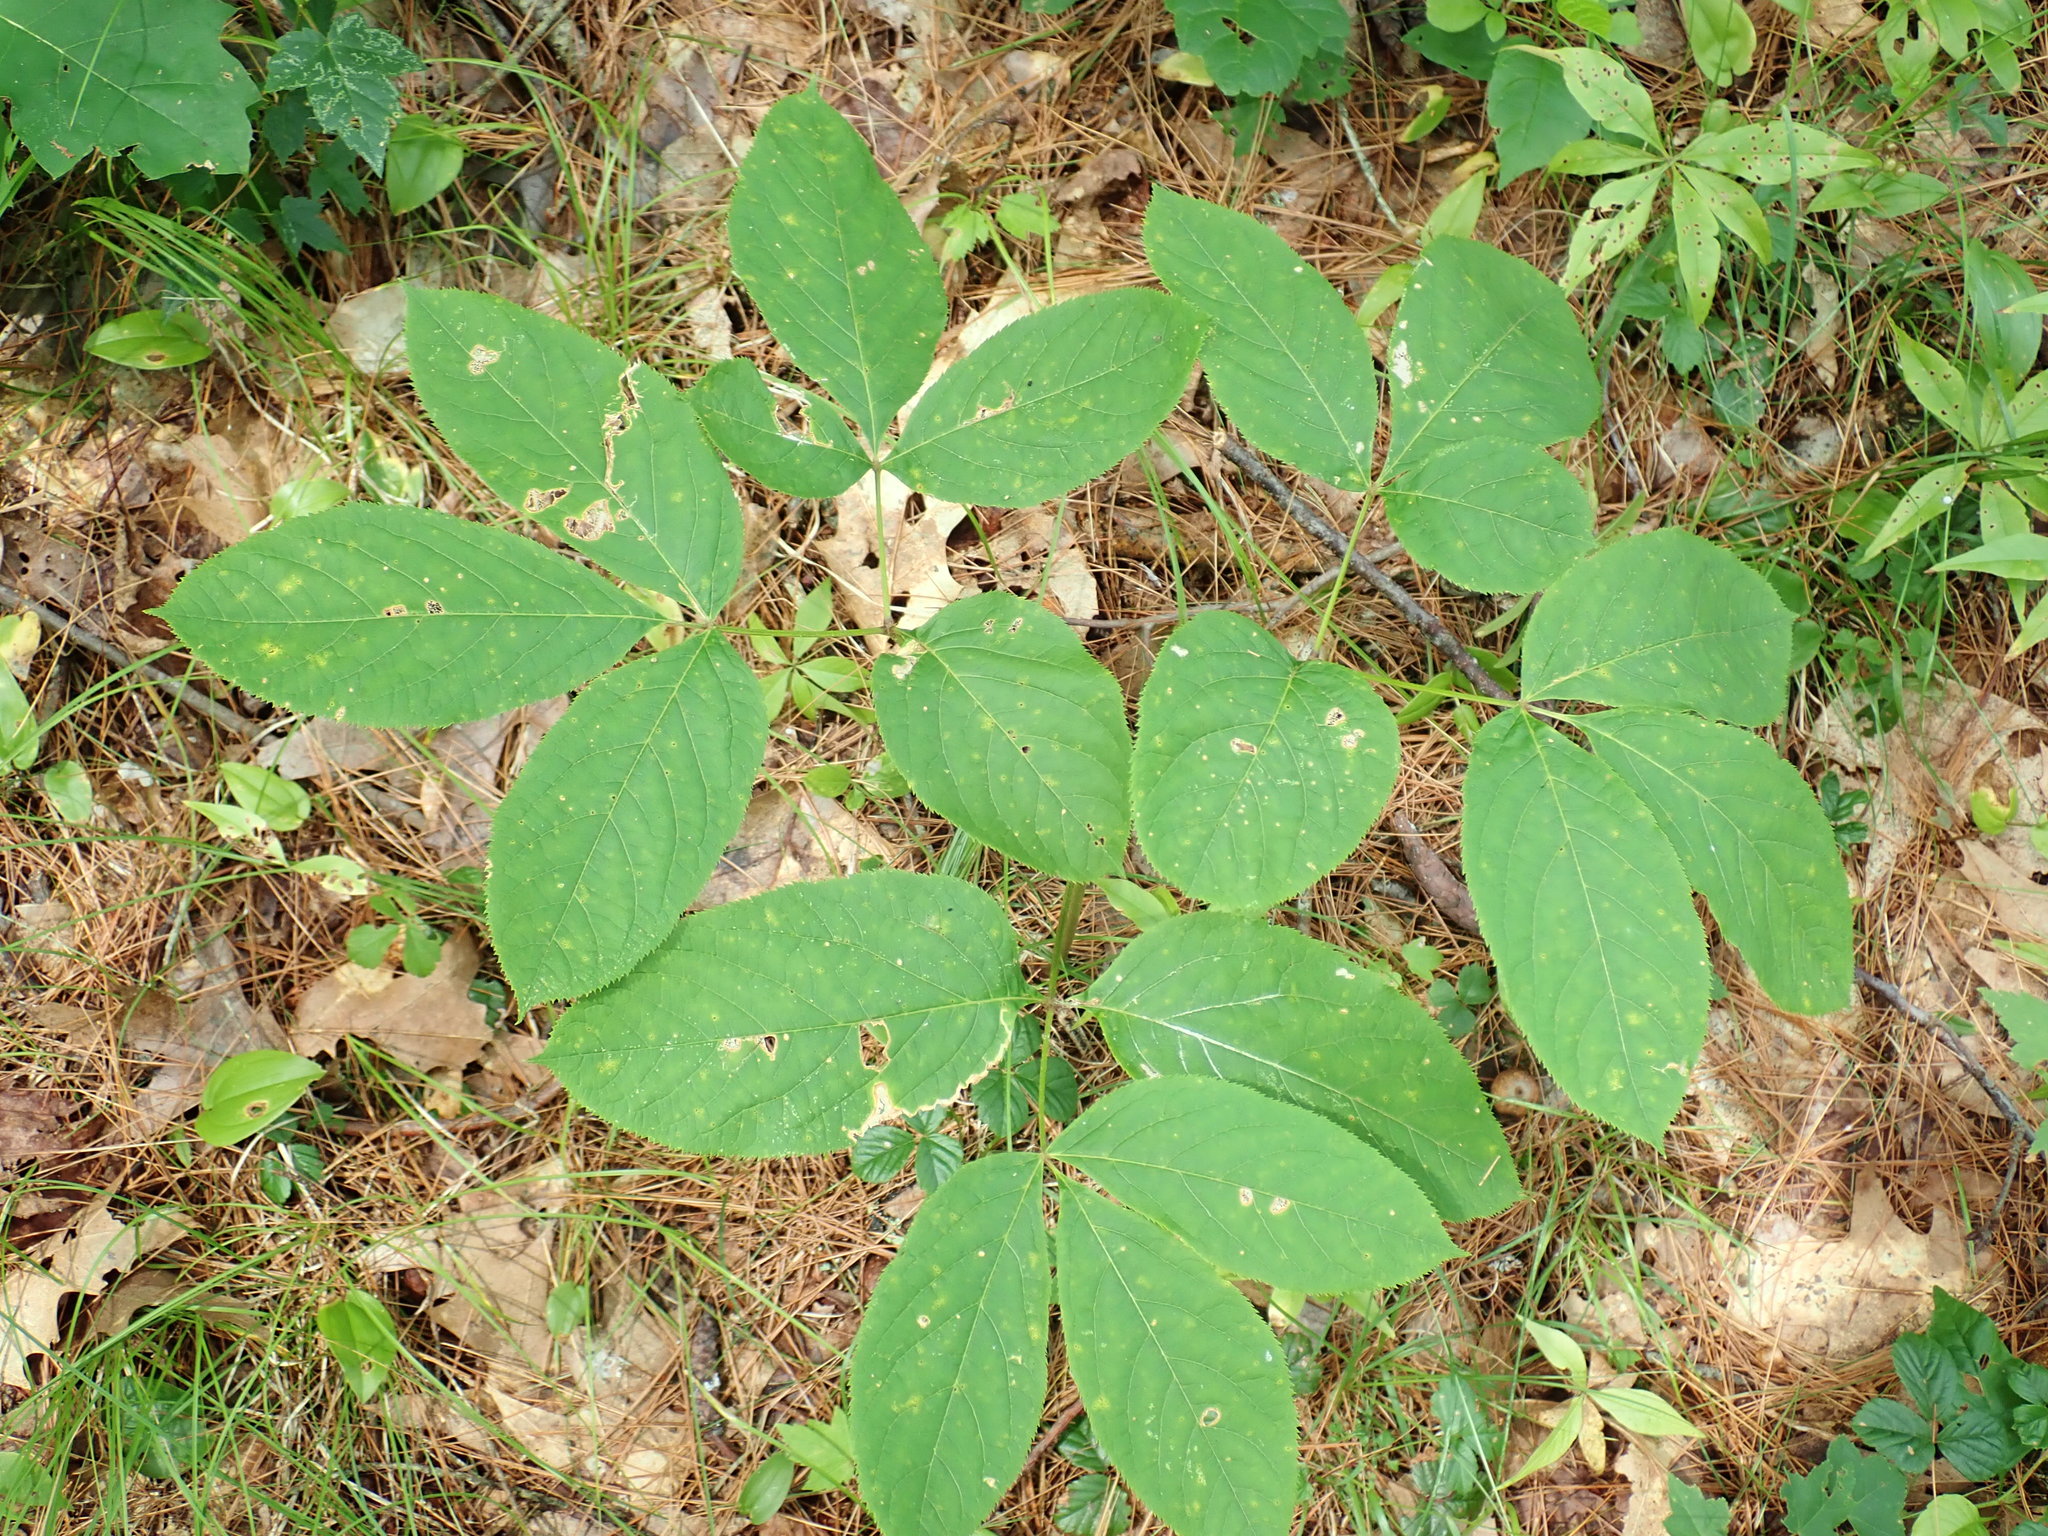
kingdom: Plantae
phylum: Tracheophyta
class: Magnoliopsida
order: Apiales
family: Araliaceae
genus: Aralia
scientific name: Aralia nudicaulis
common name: Wild sarsaparilla
